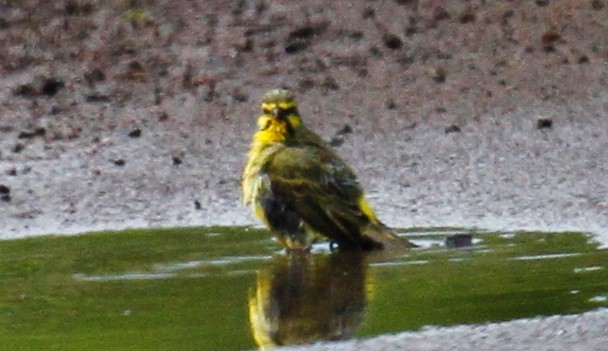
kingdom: Animalia
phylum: Chordata
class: Aves
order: Passeriformes
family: Fringillidae
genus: Crithagra
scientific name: Crithagra mozambica
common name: Yellow-fronted canary
